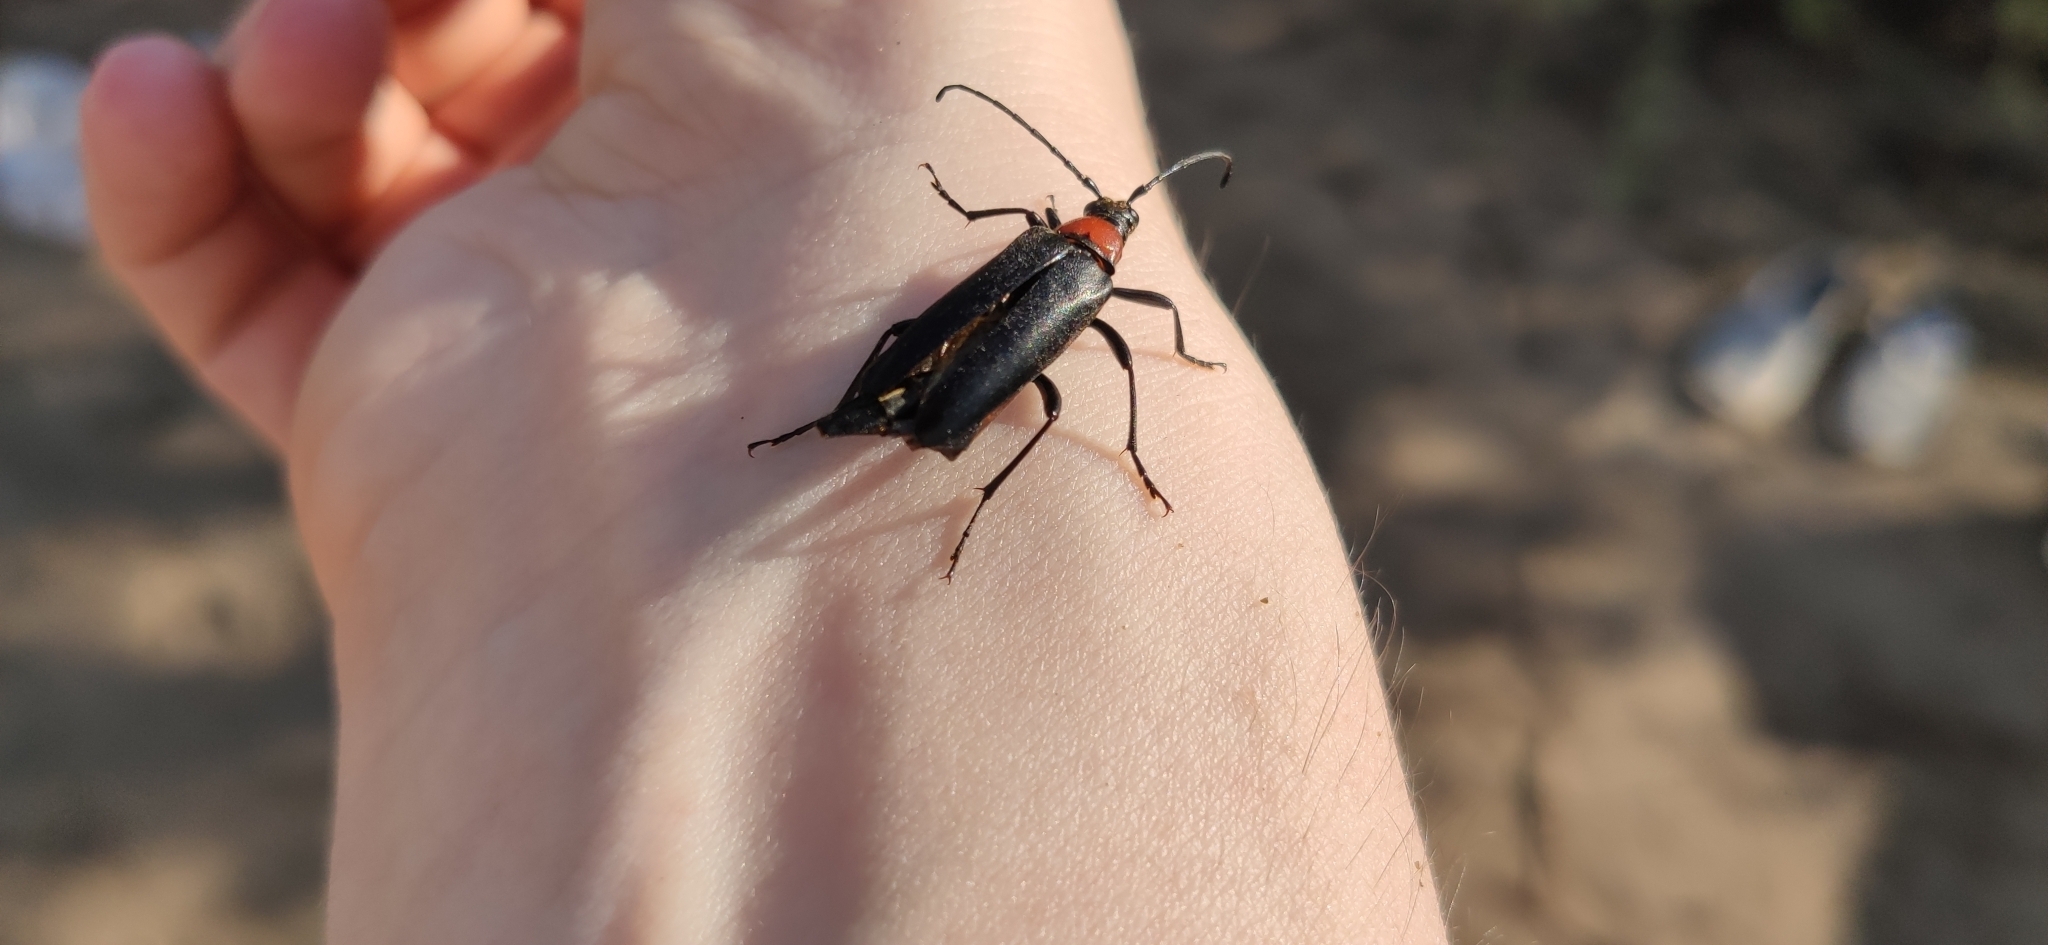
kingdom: Animalia
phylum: Arthropoda
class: Insecta
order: Coleoptera
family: Cerambycidae
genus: Leptura
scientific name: Leptura thoracica
